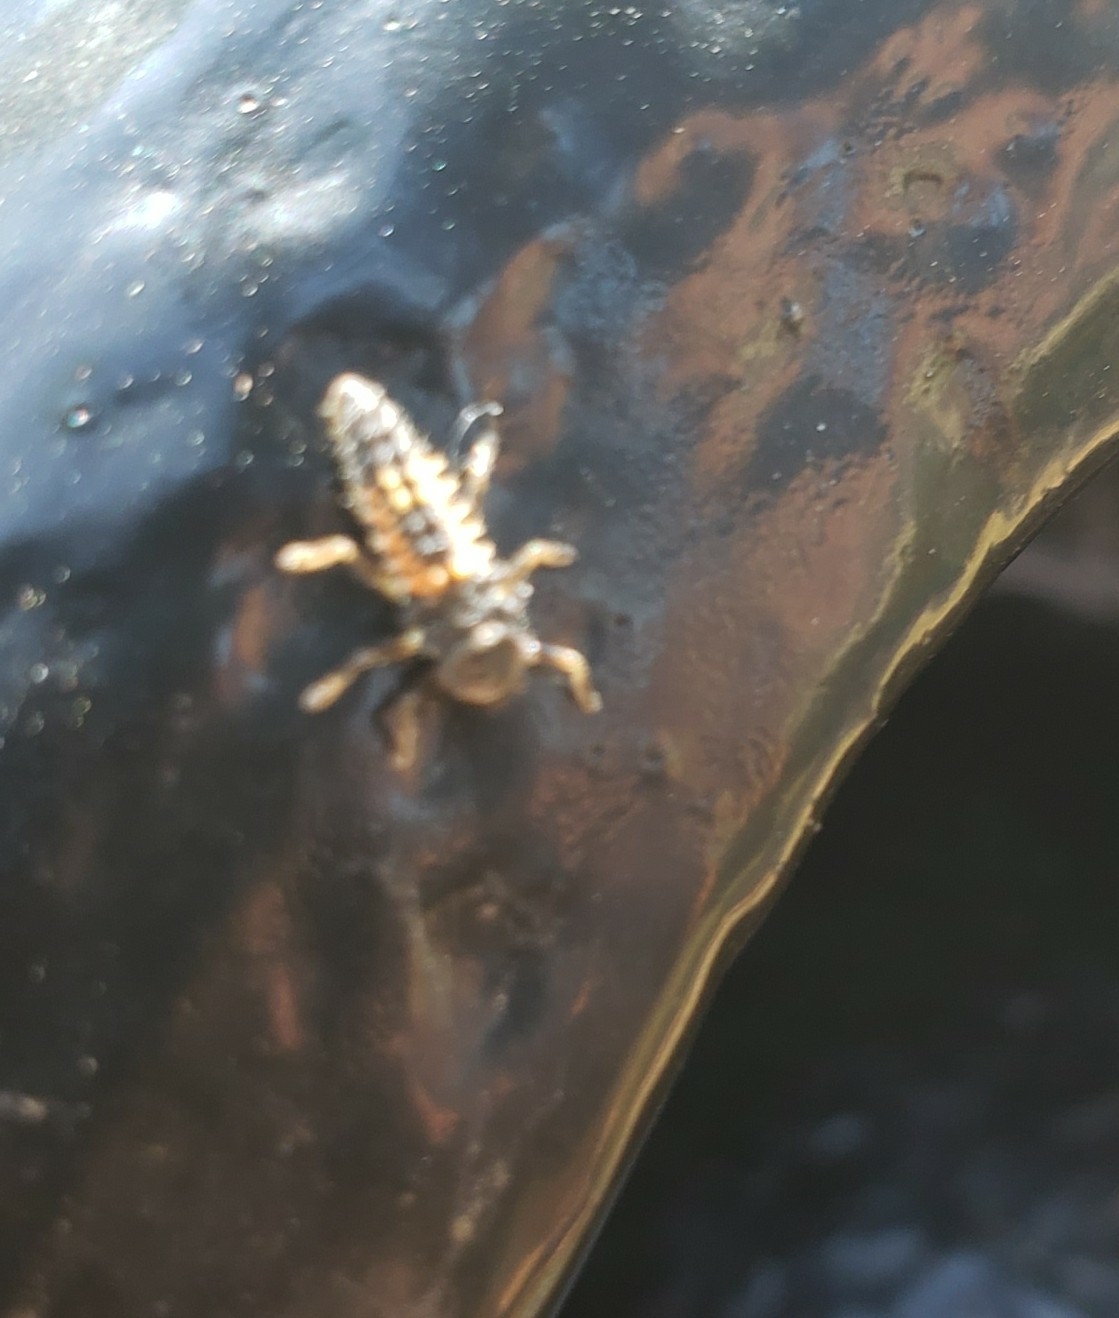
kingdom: Animalia
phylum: Arthropoda
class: Insecta
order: Coleoptera
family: Coccinellidae
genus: Harmonia
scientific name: Harmonia axyridis
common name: Harlequin ladybird
